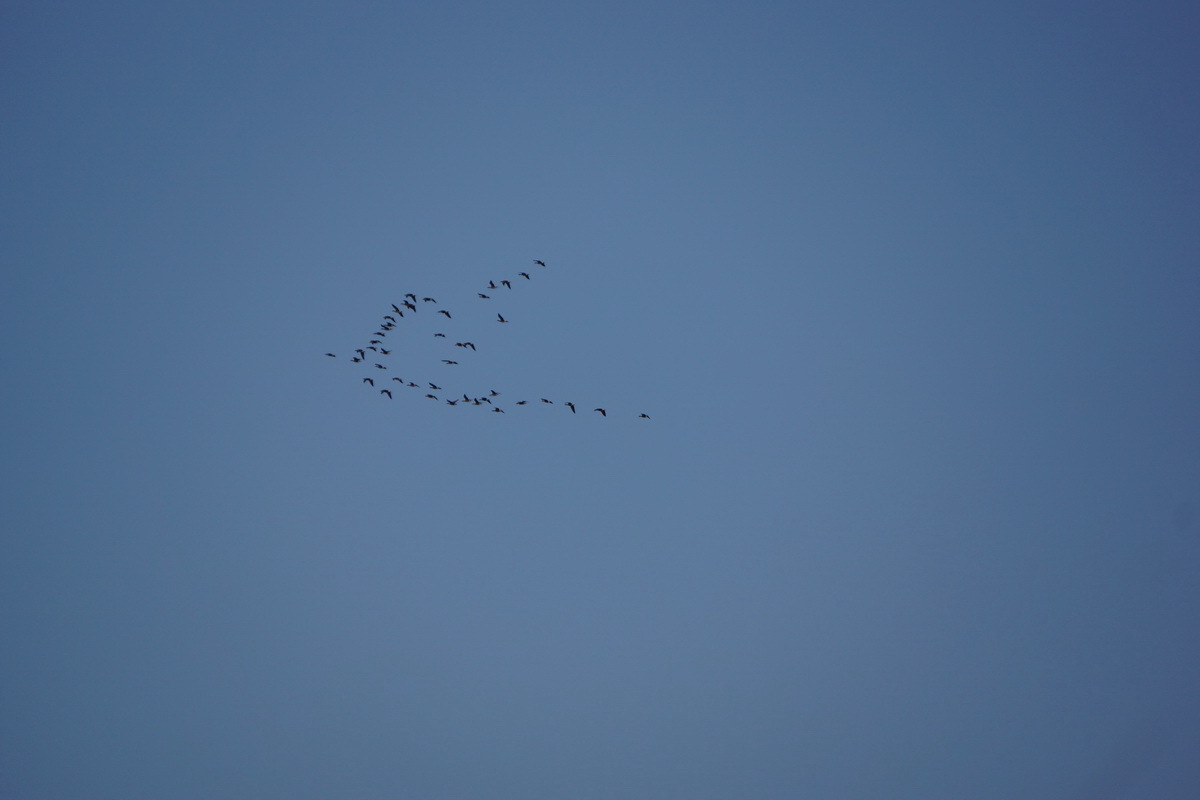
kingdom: Animalia
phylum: Chordata
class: Aves
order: Anseriformes
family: Anatidae
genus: Anser
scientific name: Anser albifrons
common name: Greater white-fronted goose
